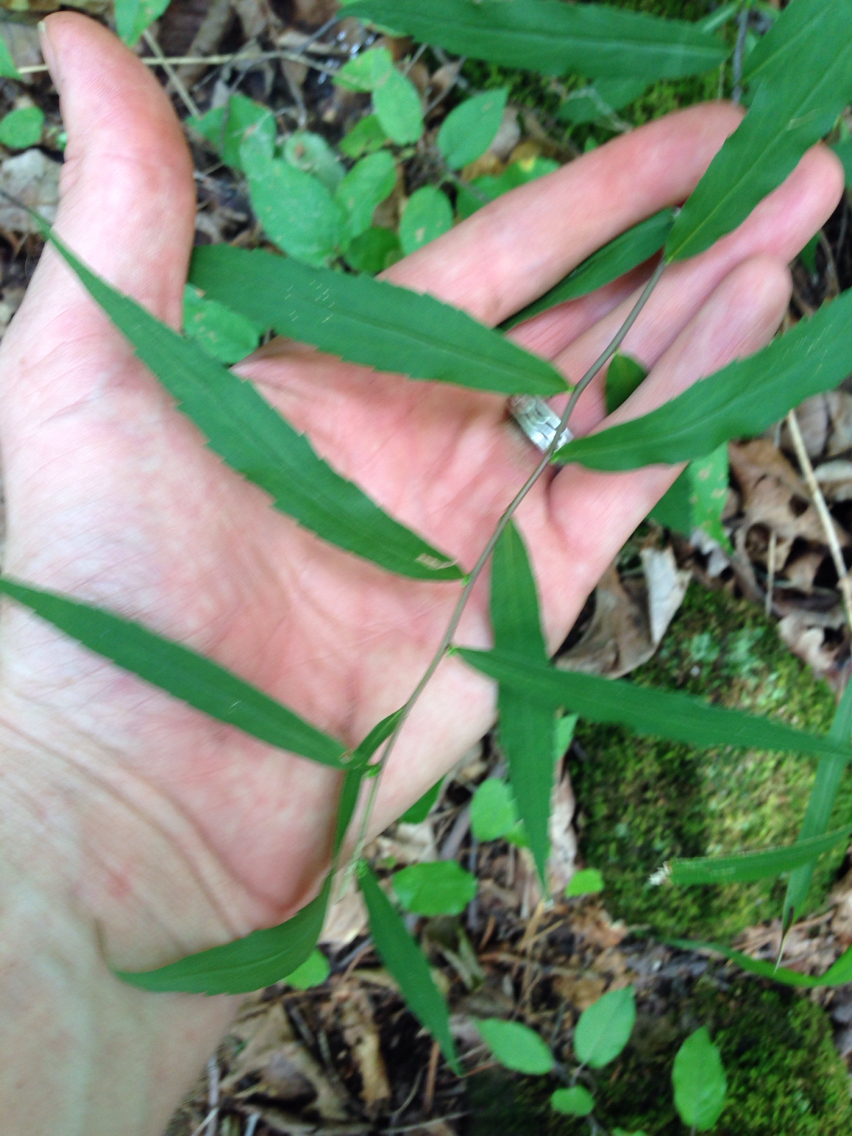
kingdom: Plantae
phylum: Tracheophyta
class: Magnoliopsida
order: Asterales
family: Asteraceae
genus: Solidago
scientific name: Solidago caesia
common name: Woodland goldenrod
